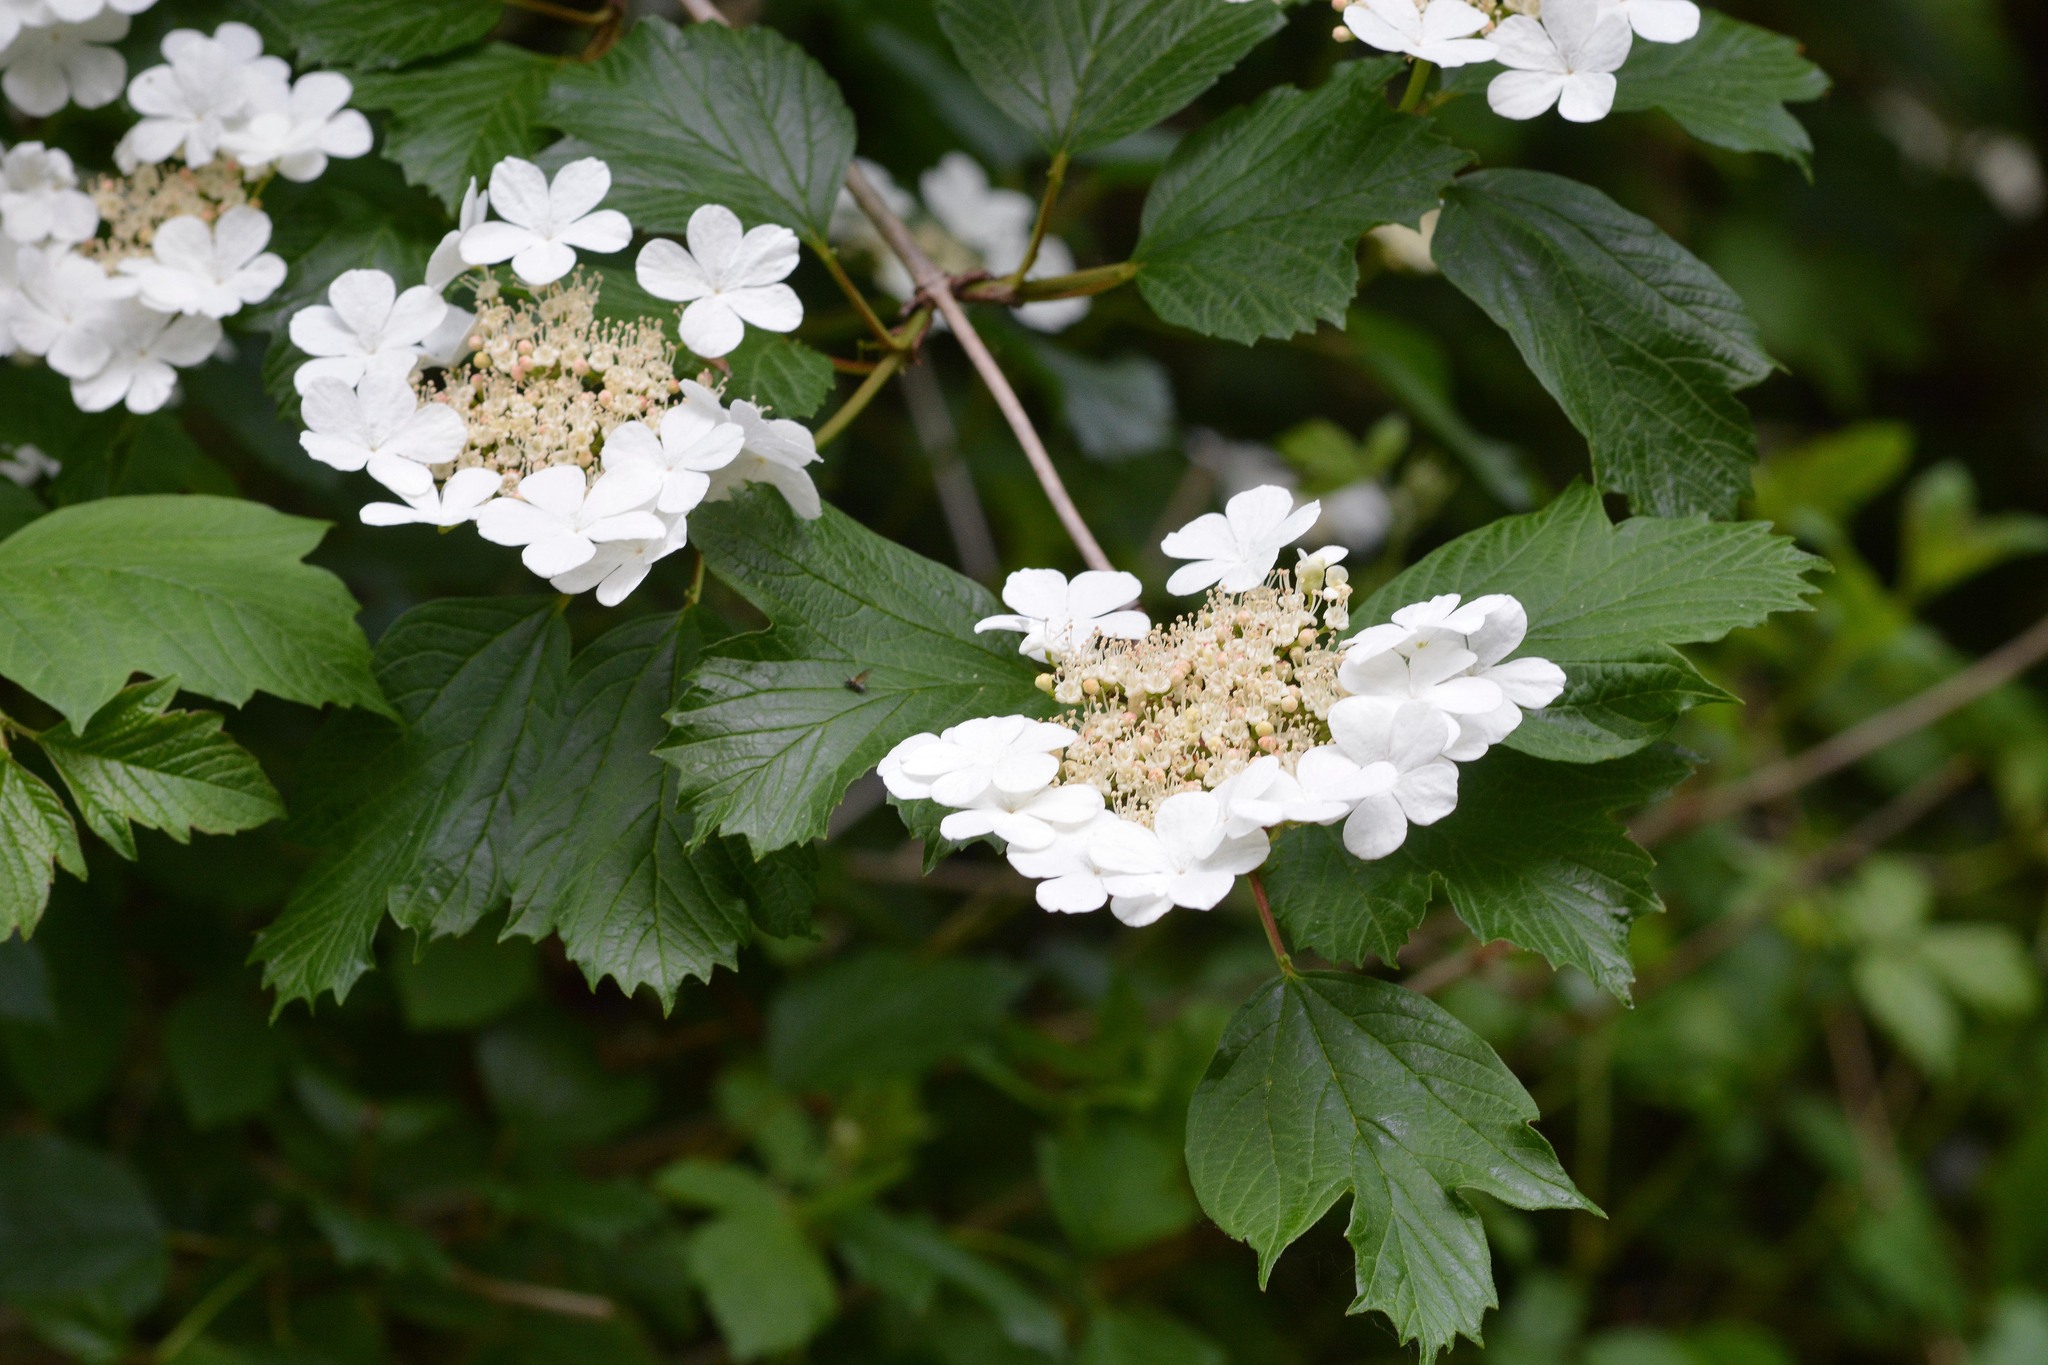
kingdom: Plantae
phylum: Tracheophyta
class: Magnoliopsida
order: Dipsacales
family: Viburnaceae
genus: Viburnum
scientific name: Viburnum opulus
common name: Guelder-rose
